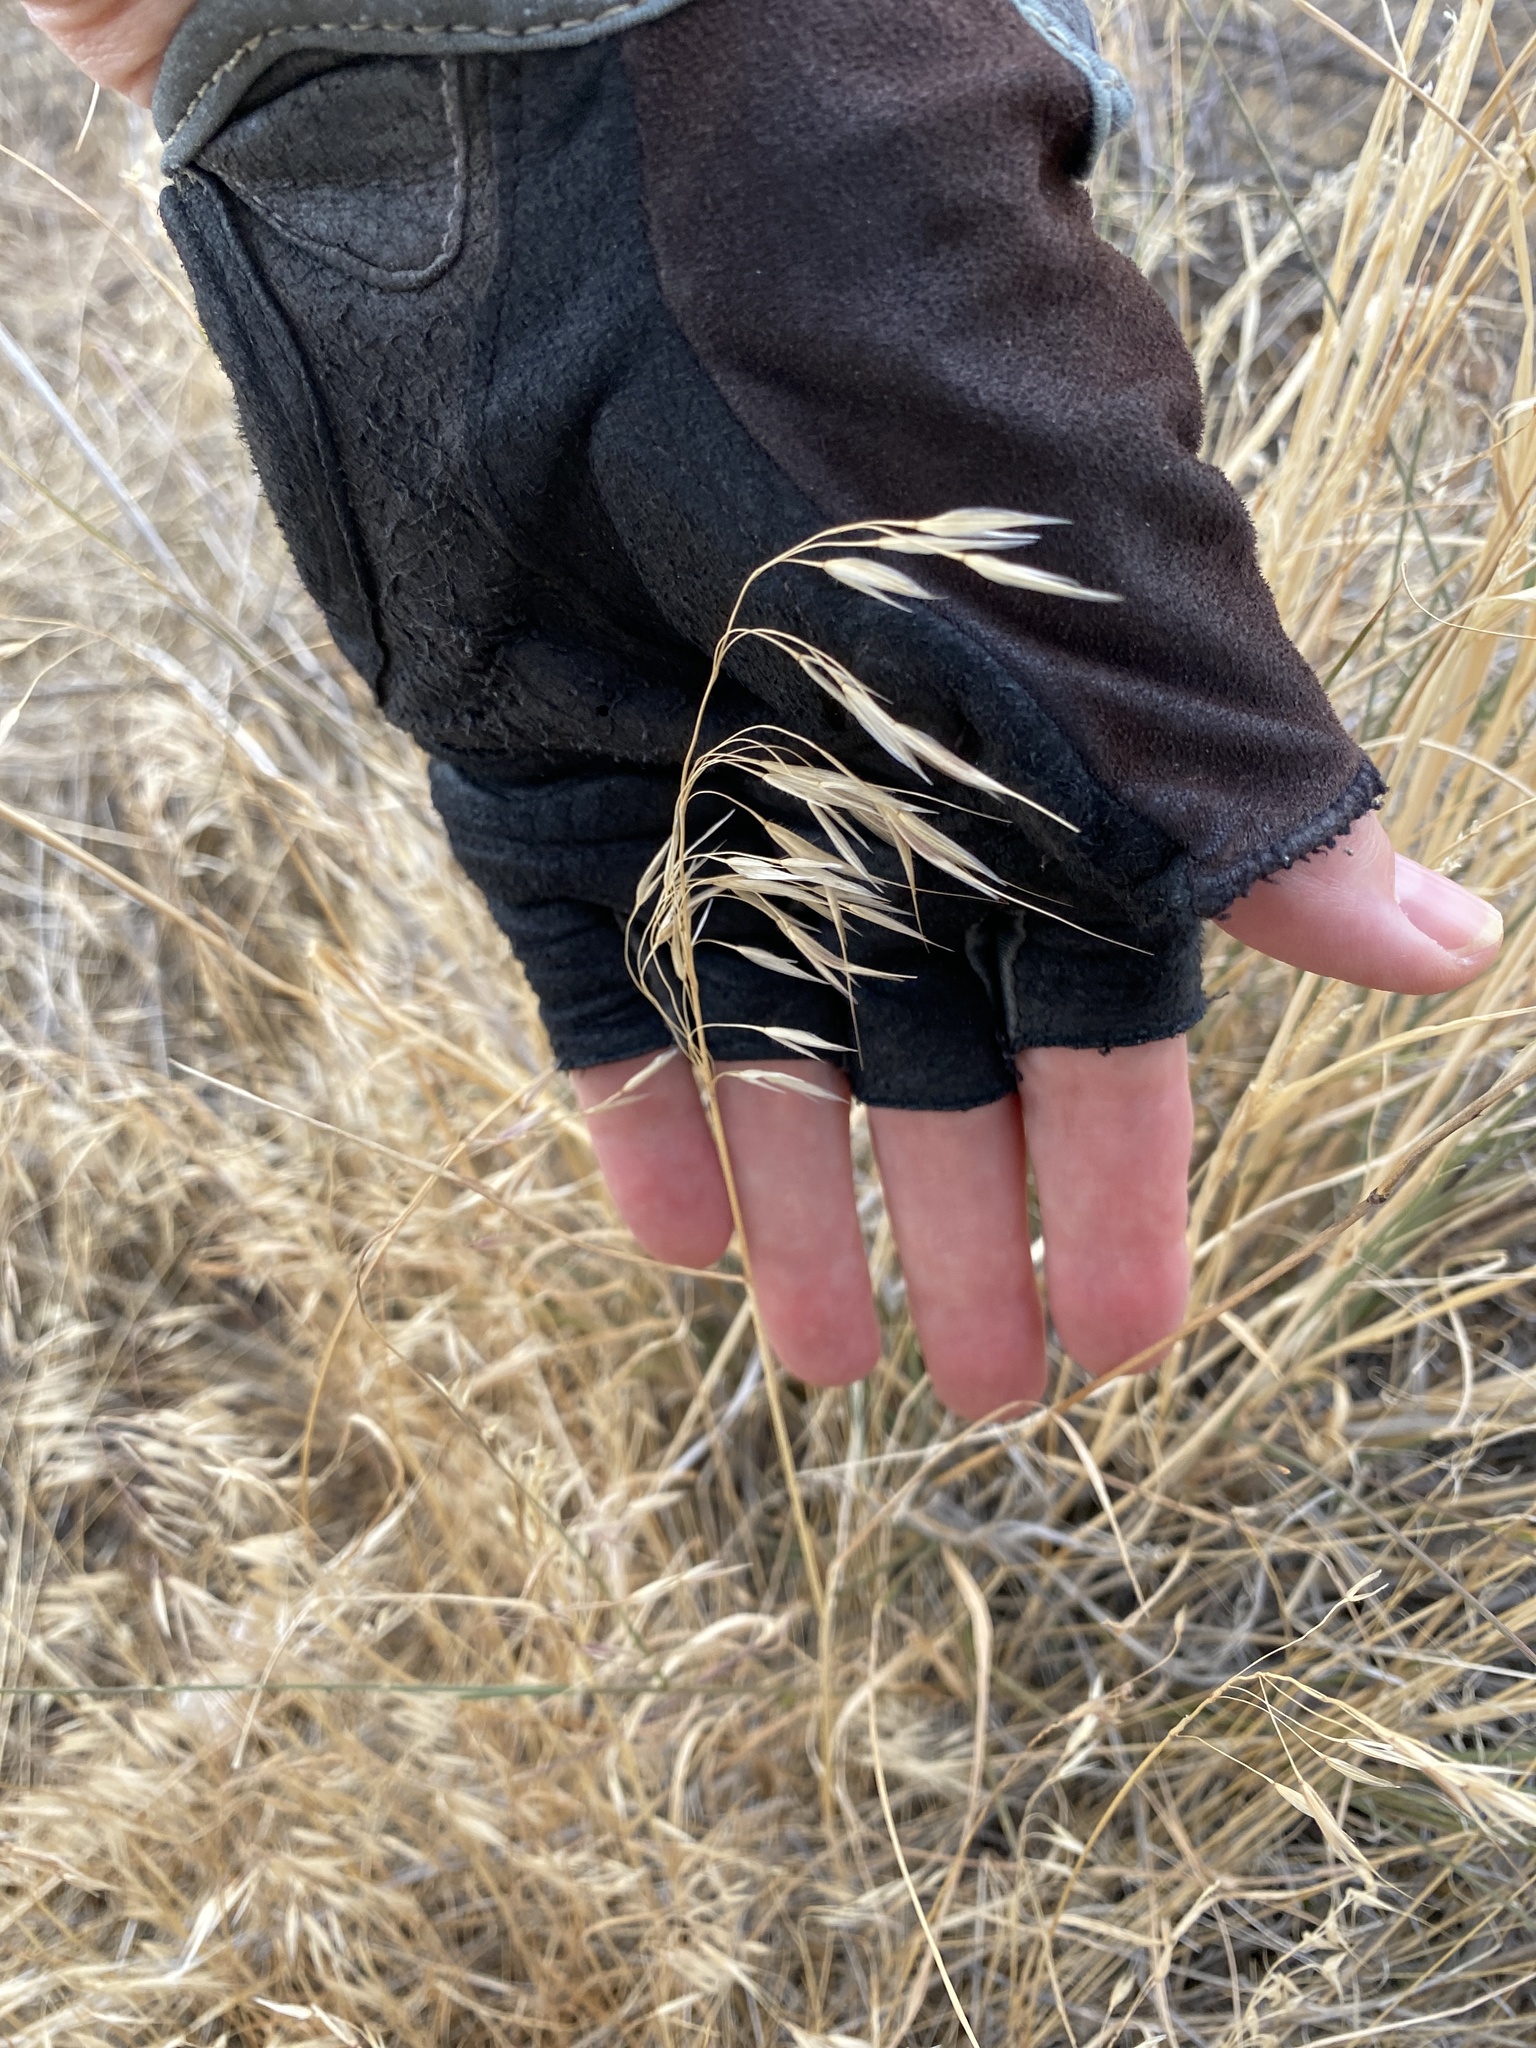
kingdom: Plantae
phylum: Tracheophyta
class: Liliopsida
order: Poales
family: Poaceae
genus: Bromus
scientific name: Bromus tectorum
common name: Cheatgrass
